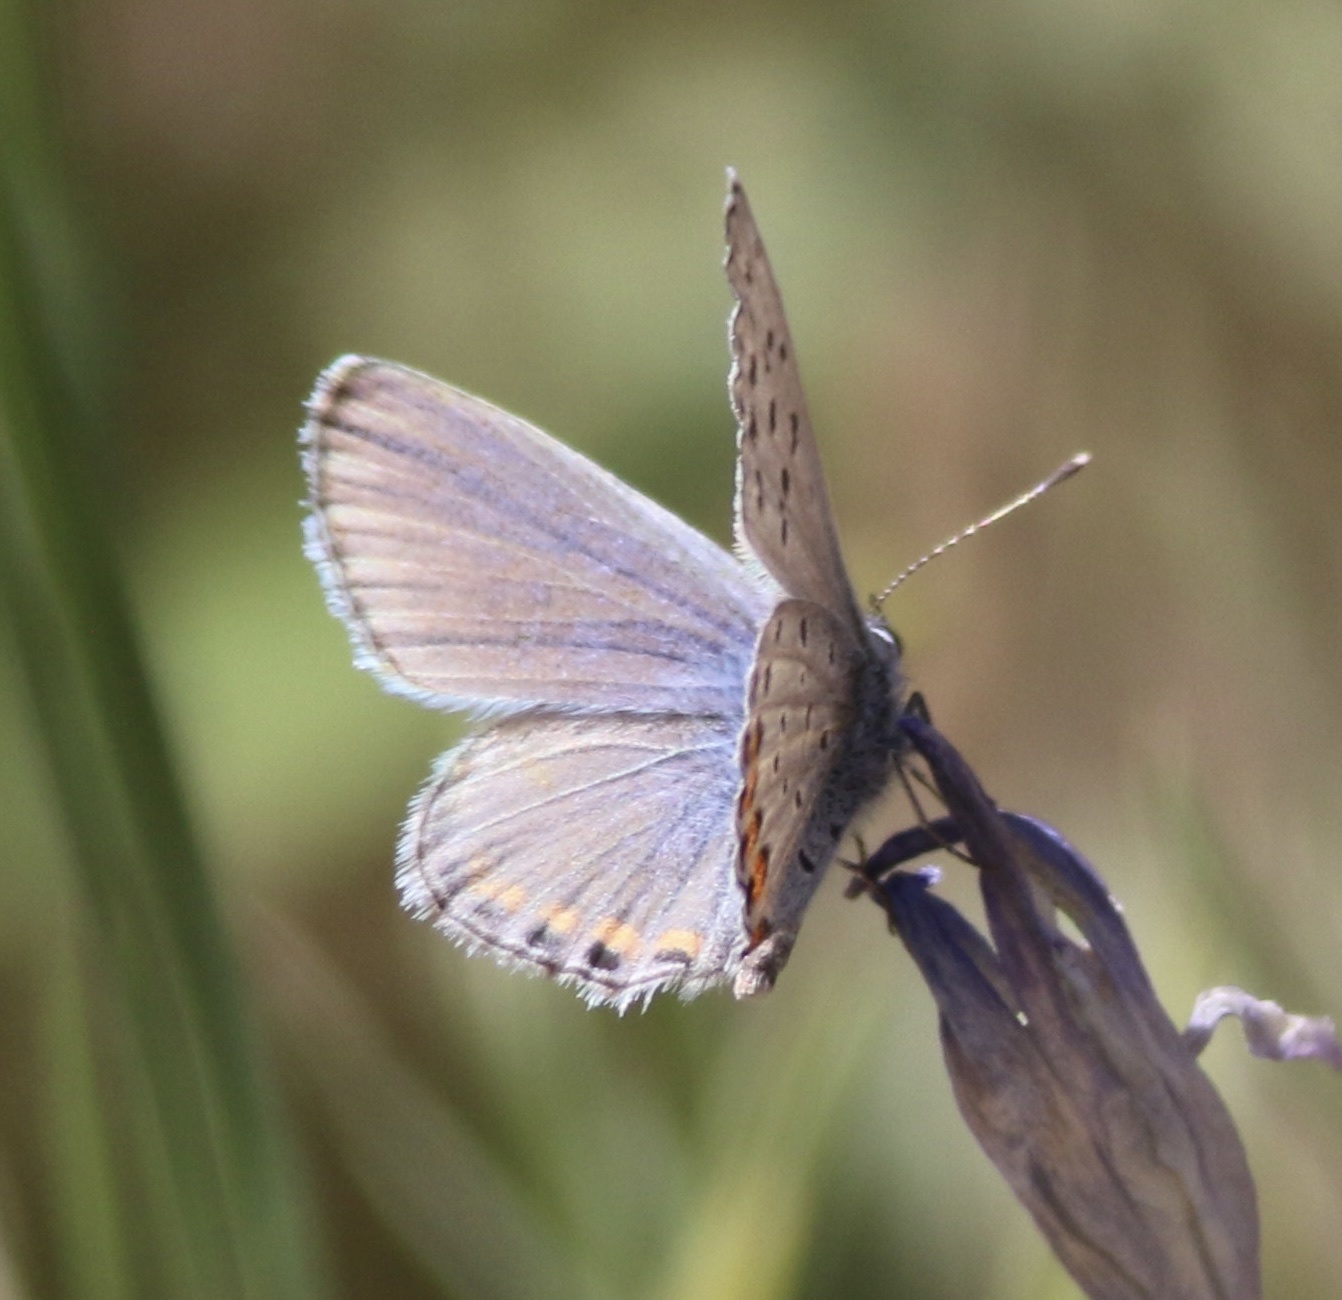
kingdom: Animalia
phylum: Arthropoda
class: Insecta
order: Lepidoptera
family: Lycaenidae
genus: Icaricia
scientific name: Icaricia acmon
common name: Acmon blue
